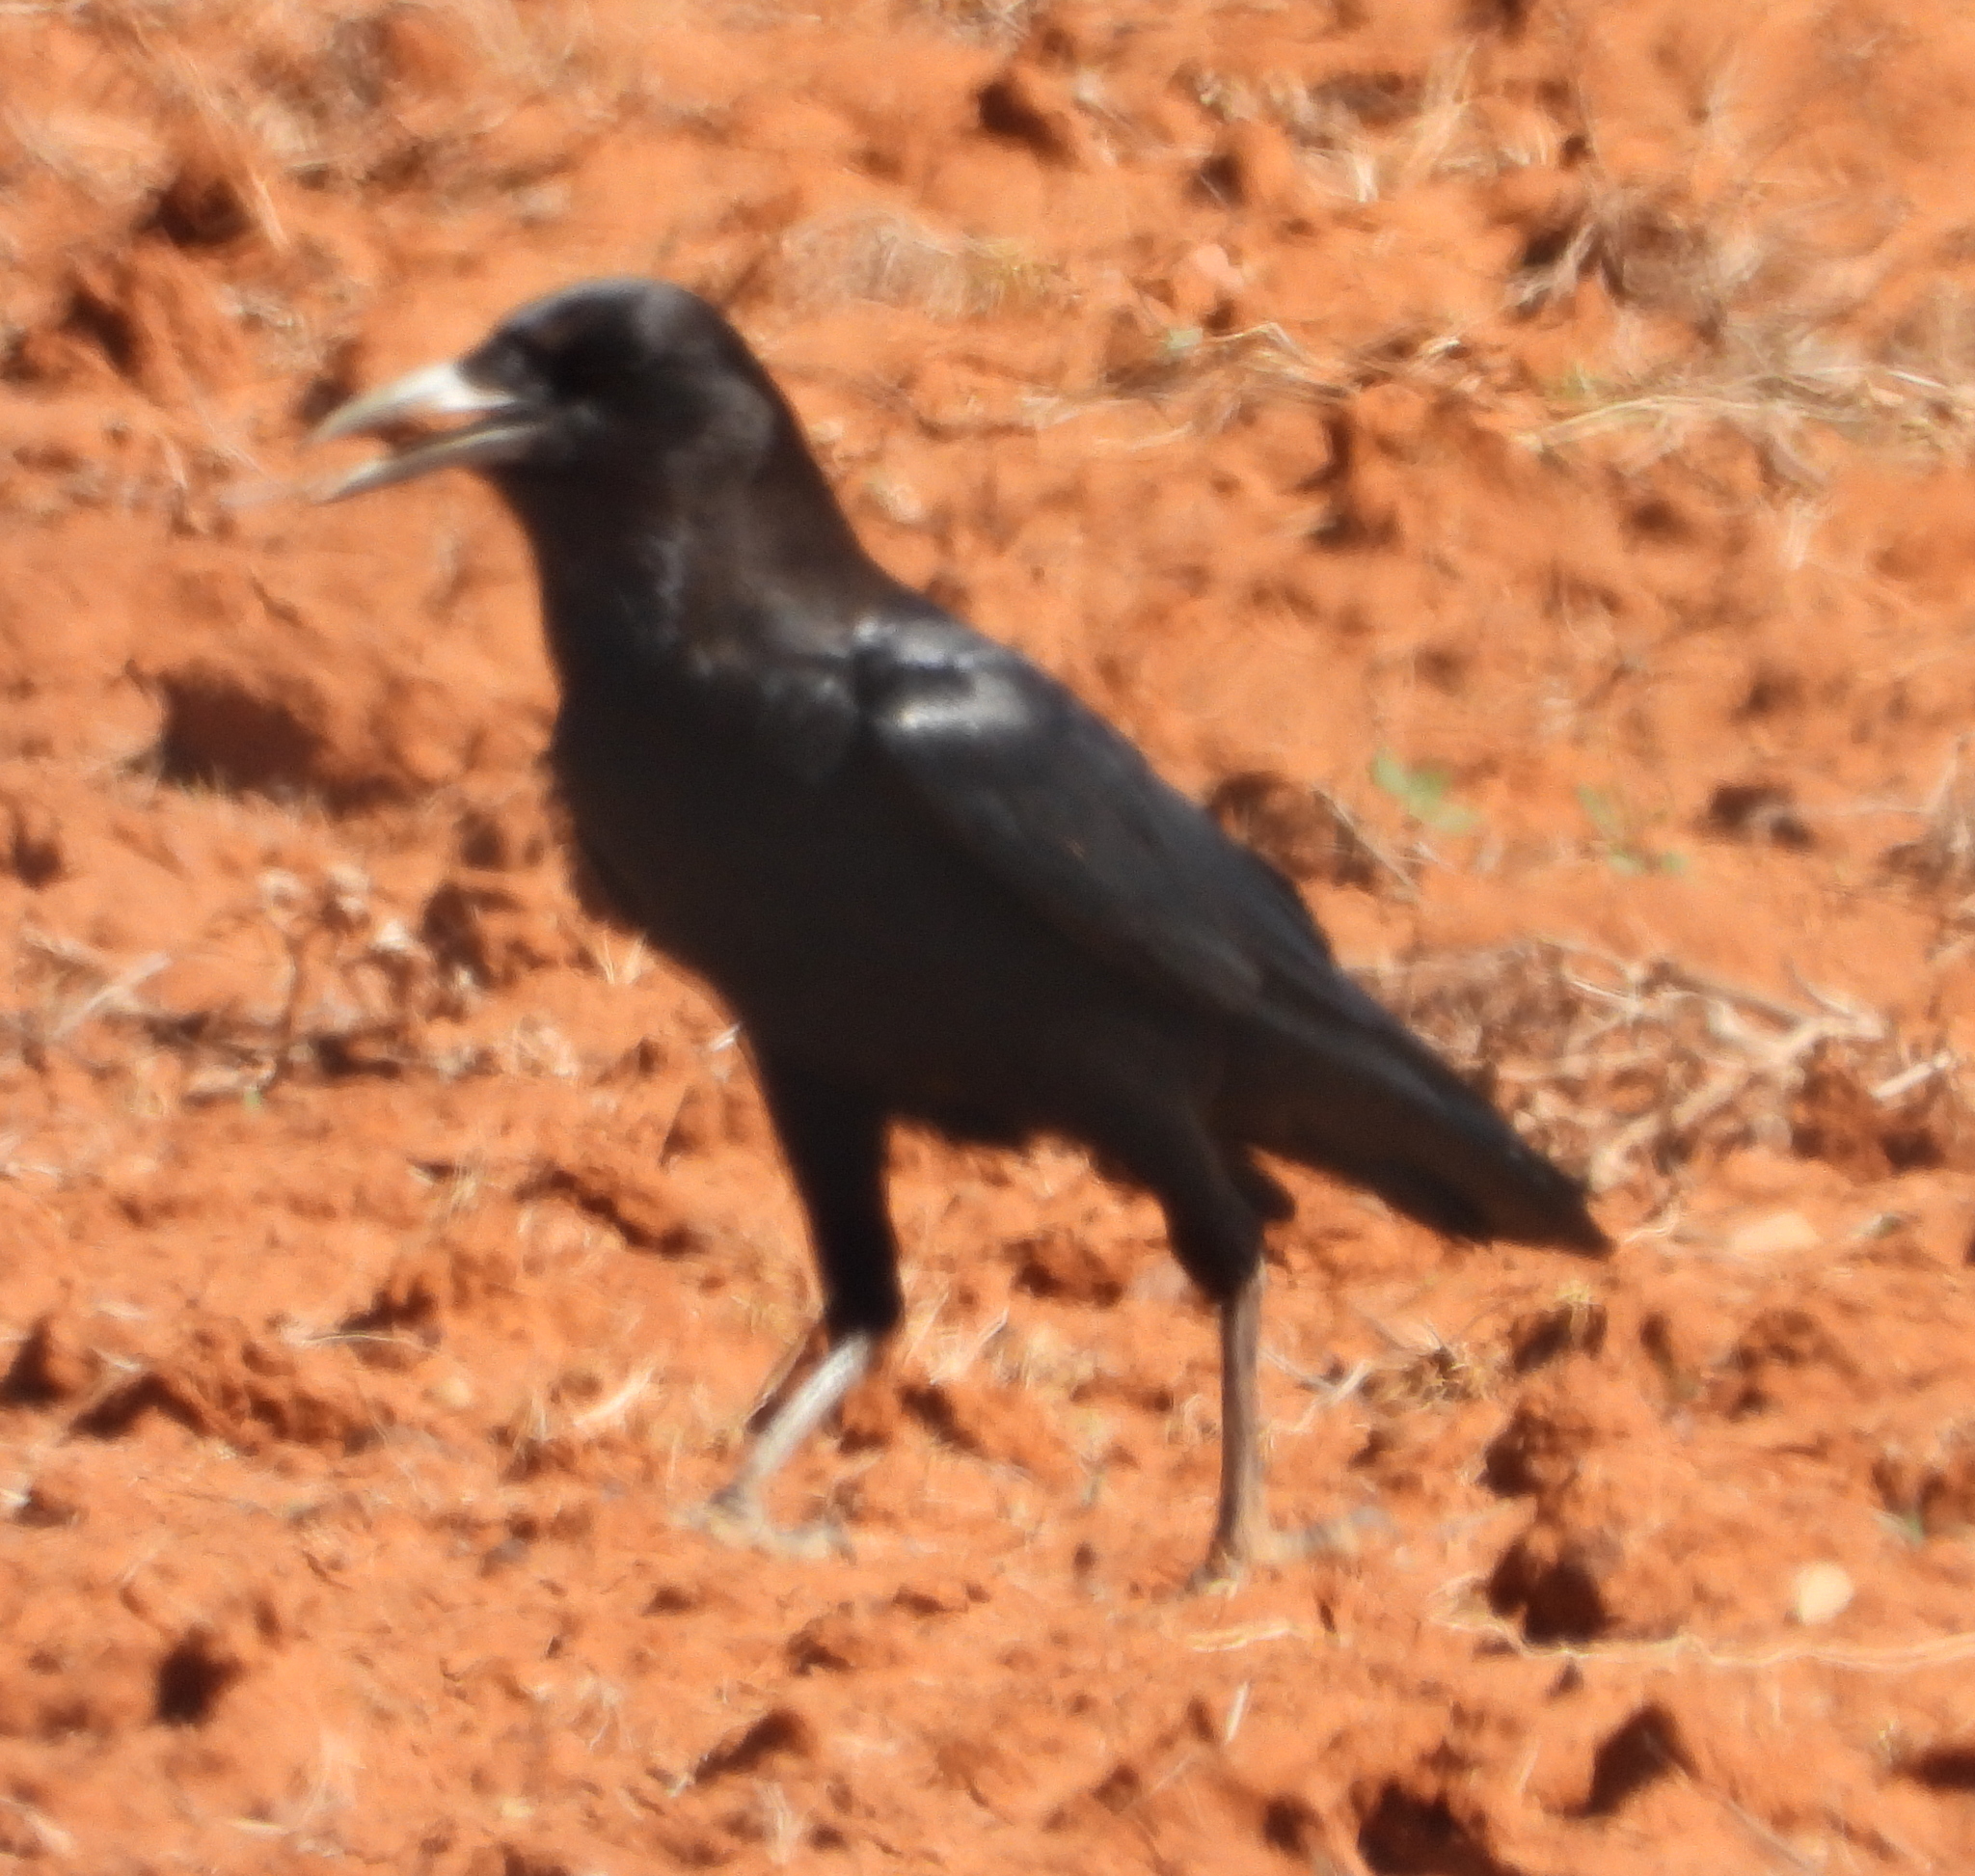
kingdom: Animalia
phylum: Chordata
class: Aves
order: Passeriformes
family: Corvidae
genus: Corvus
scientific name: Corvus capensis
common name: Cape crow
